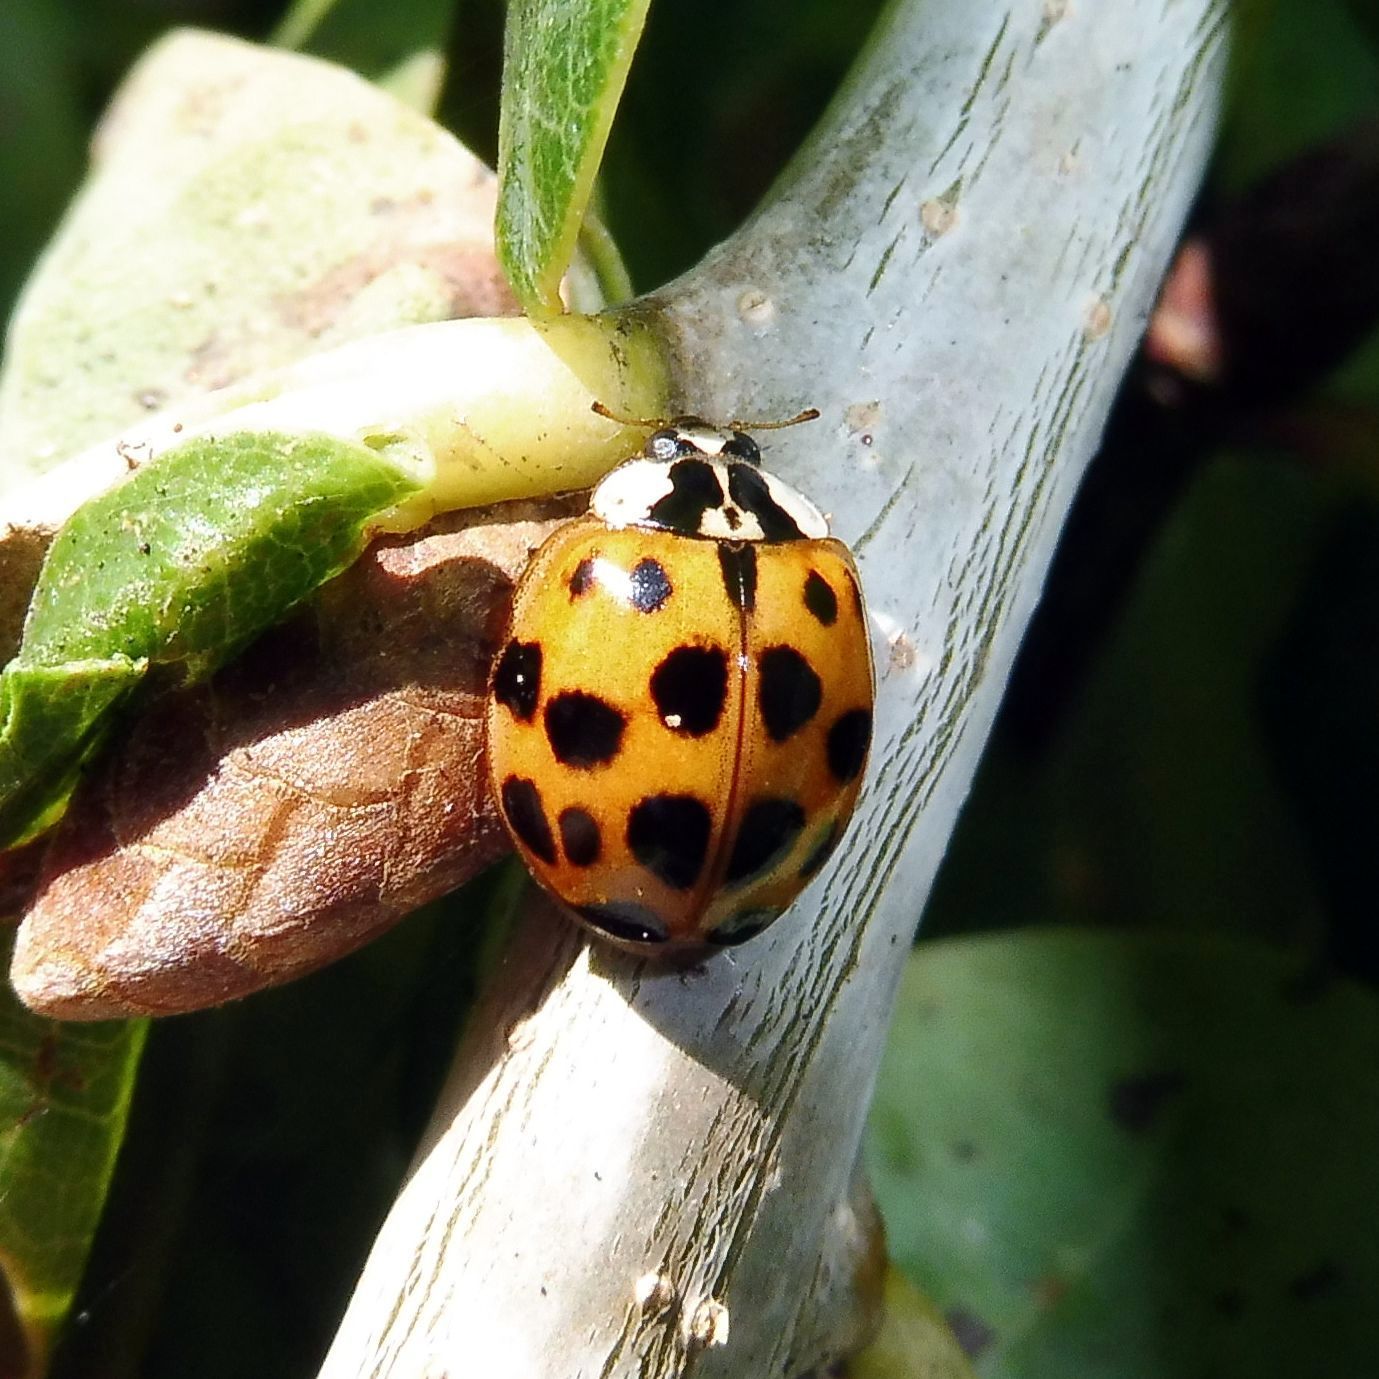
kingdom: Animalia
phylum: Arthropoda
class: Insecta
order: Coleoptera
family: Coccinellidae
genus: Harmonia
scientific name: Harmonia axyridis
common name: Harlequin ladybird
